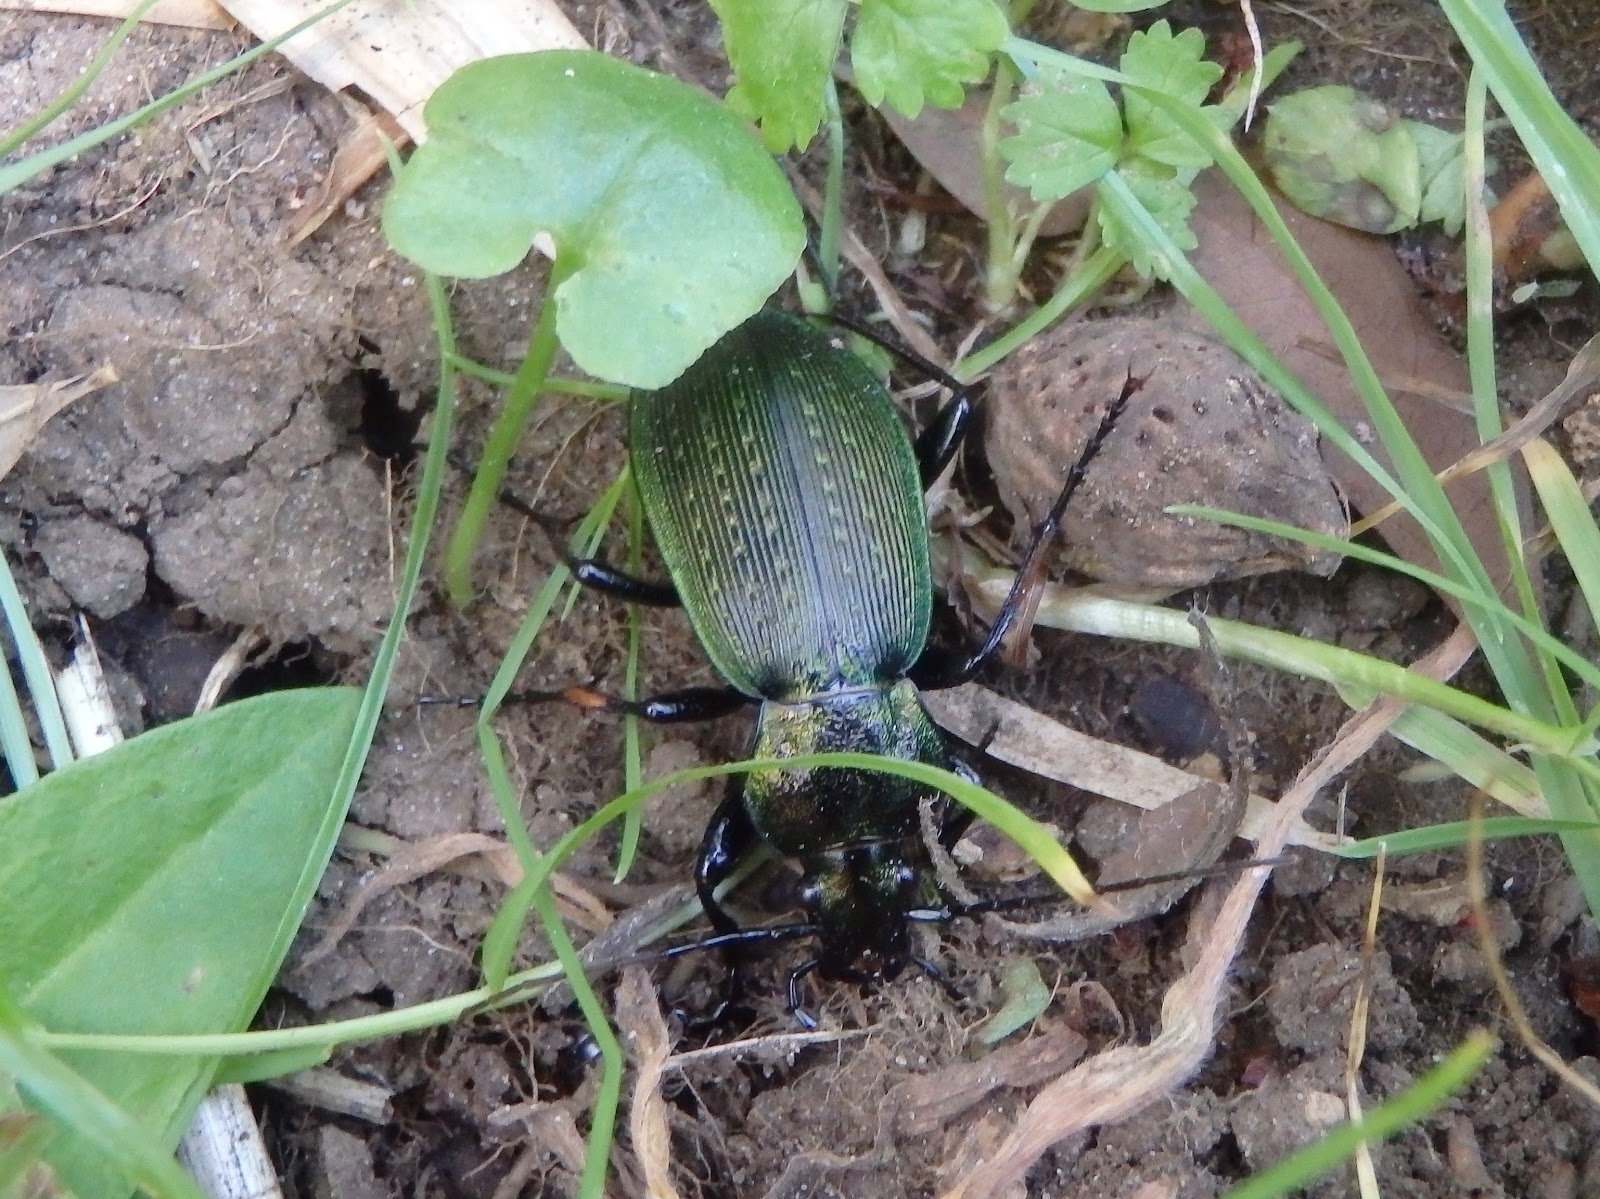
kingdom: Animalia
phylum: Arthropoda
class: Insecta
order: Coleoptera
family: Carabidae
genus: Carabus
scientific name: Carabus insulicola
